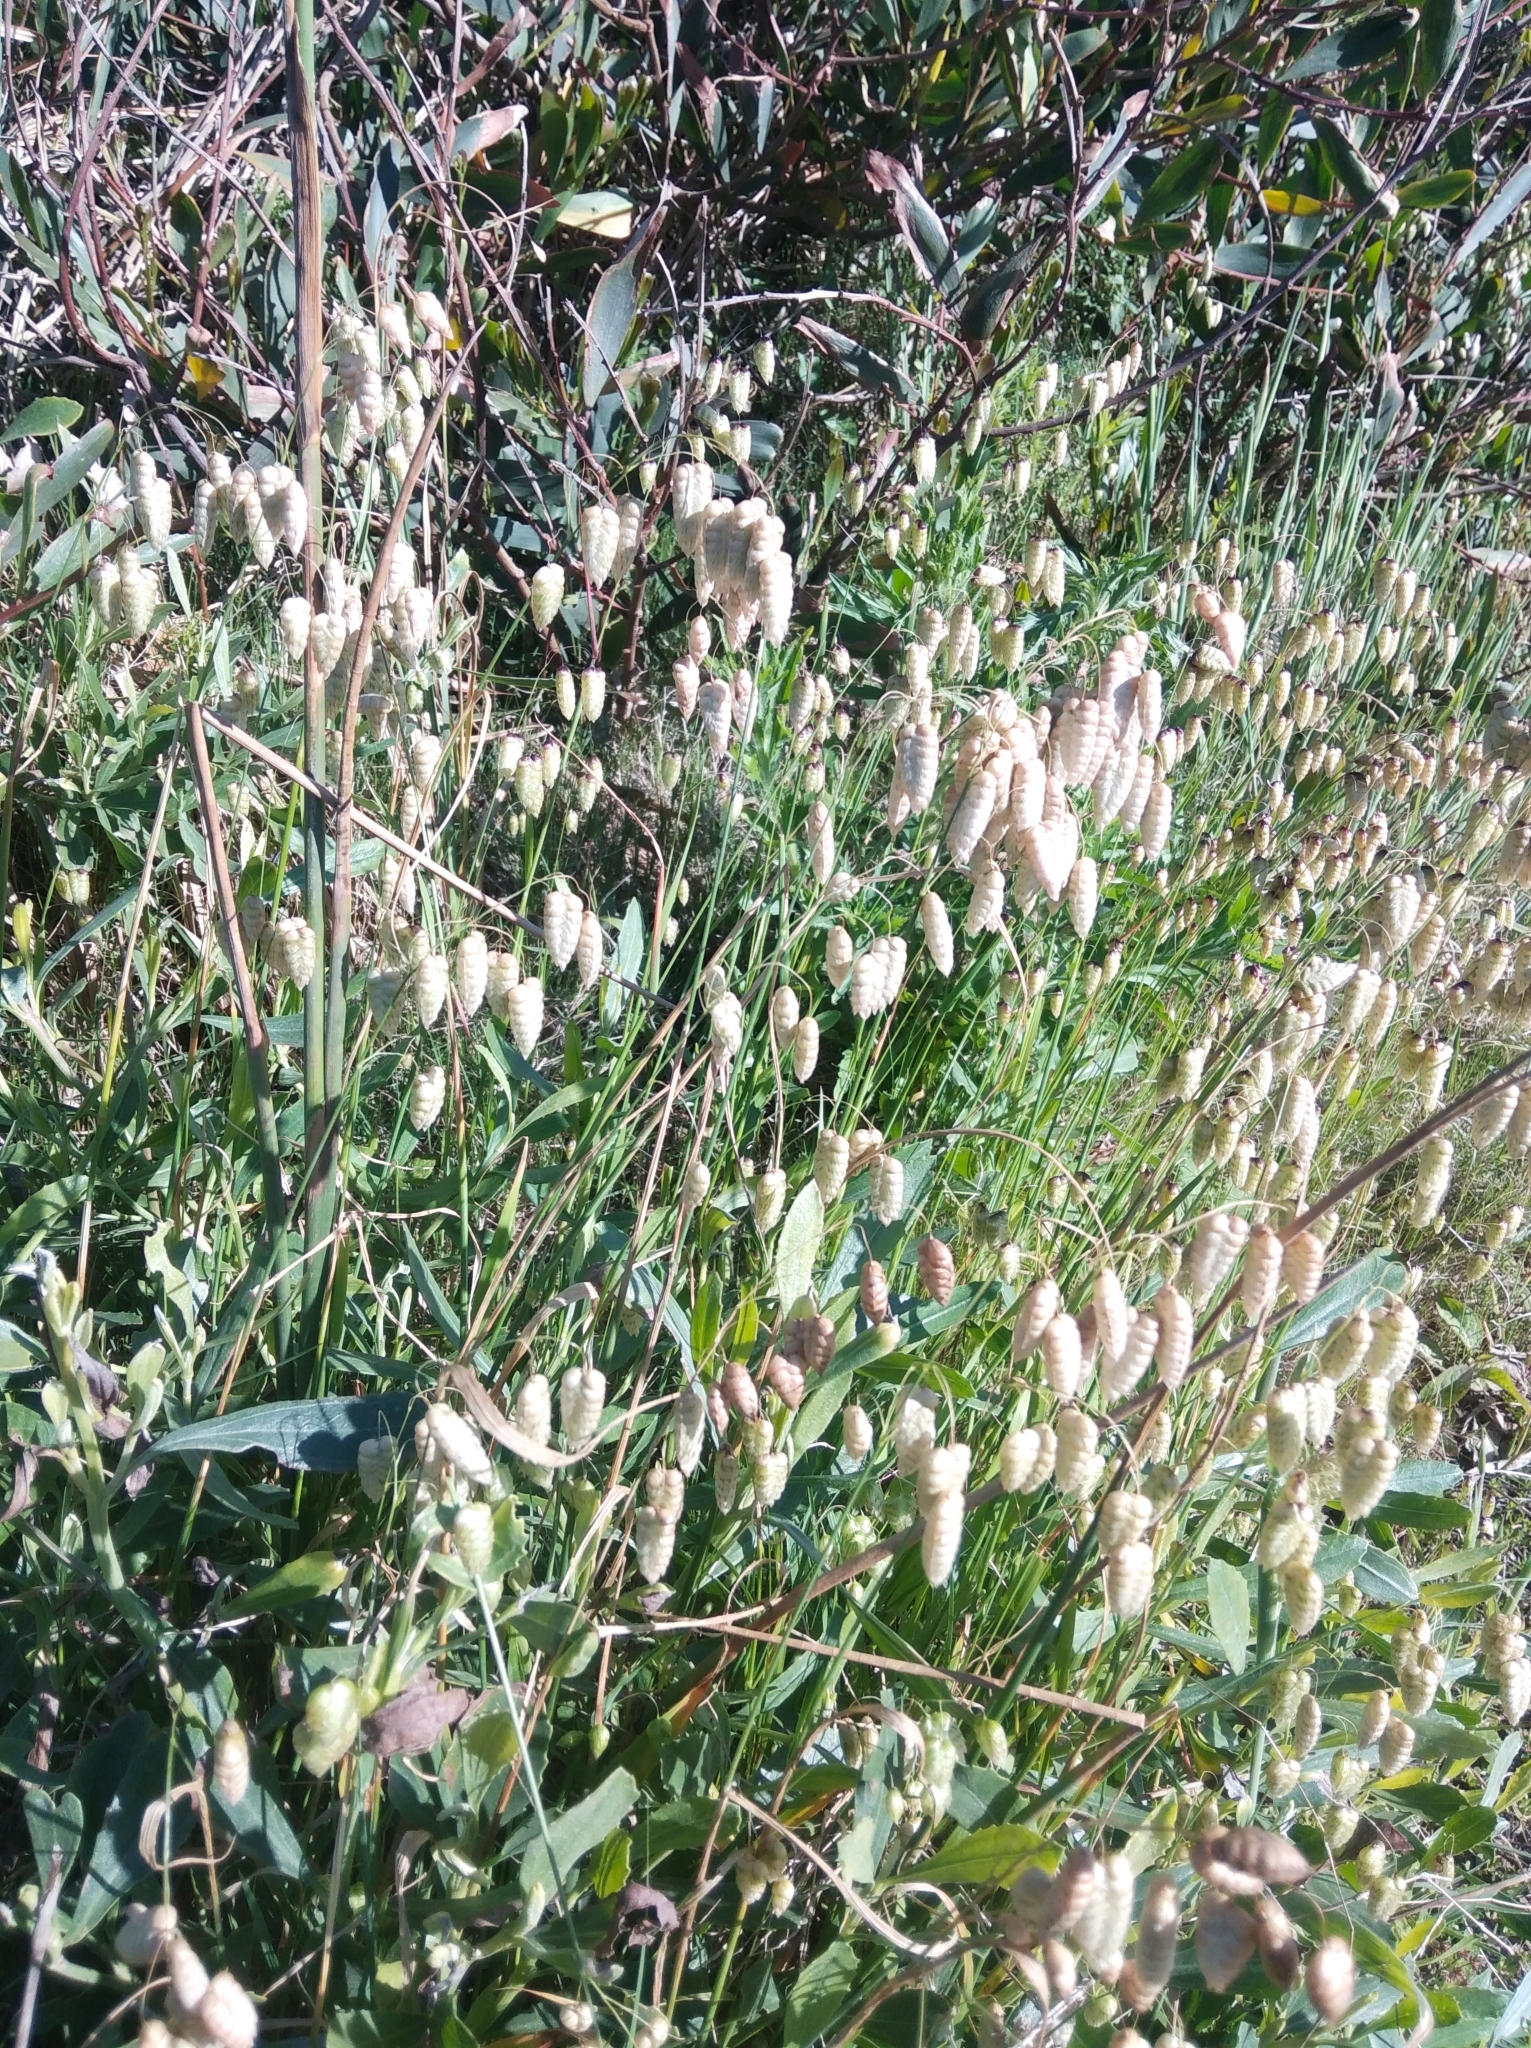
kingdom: Plantae
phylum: Tracheophyta
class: Liliopsida
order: Poales
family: Poaceae
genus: Briza
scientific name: Briza maxima
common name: Big quakinggrass
